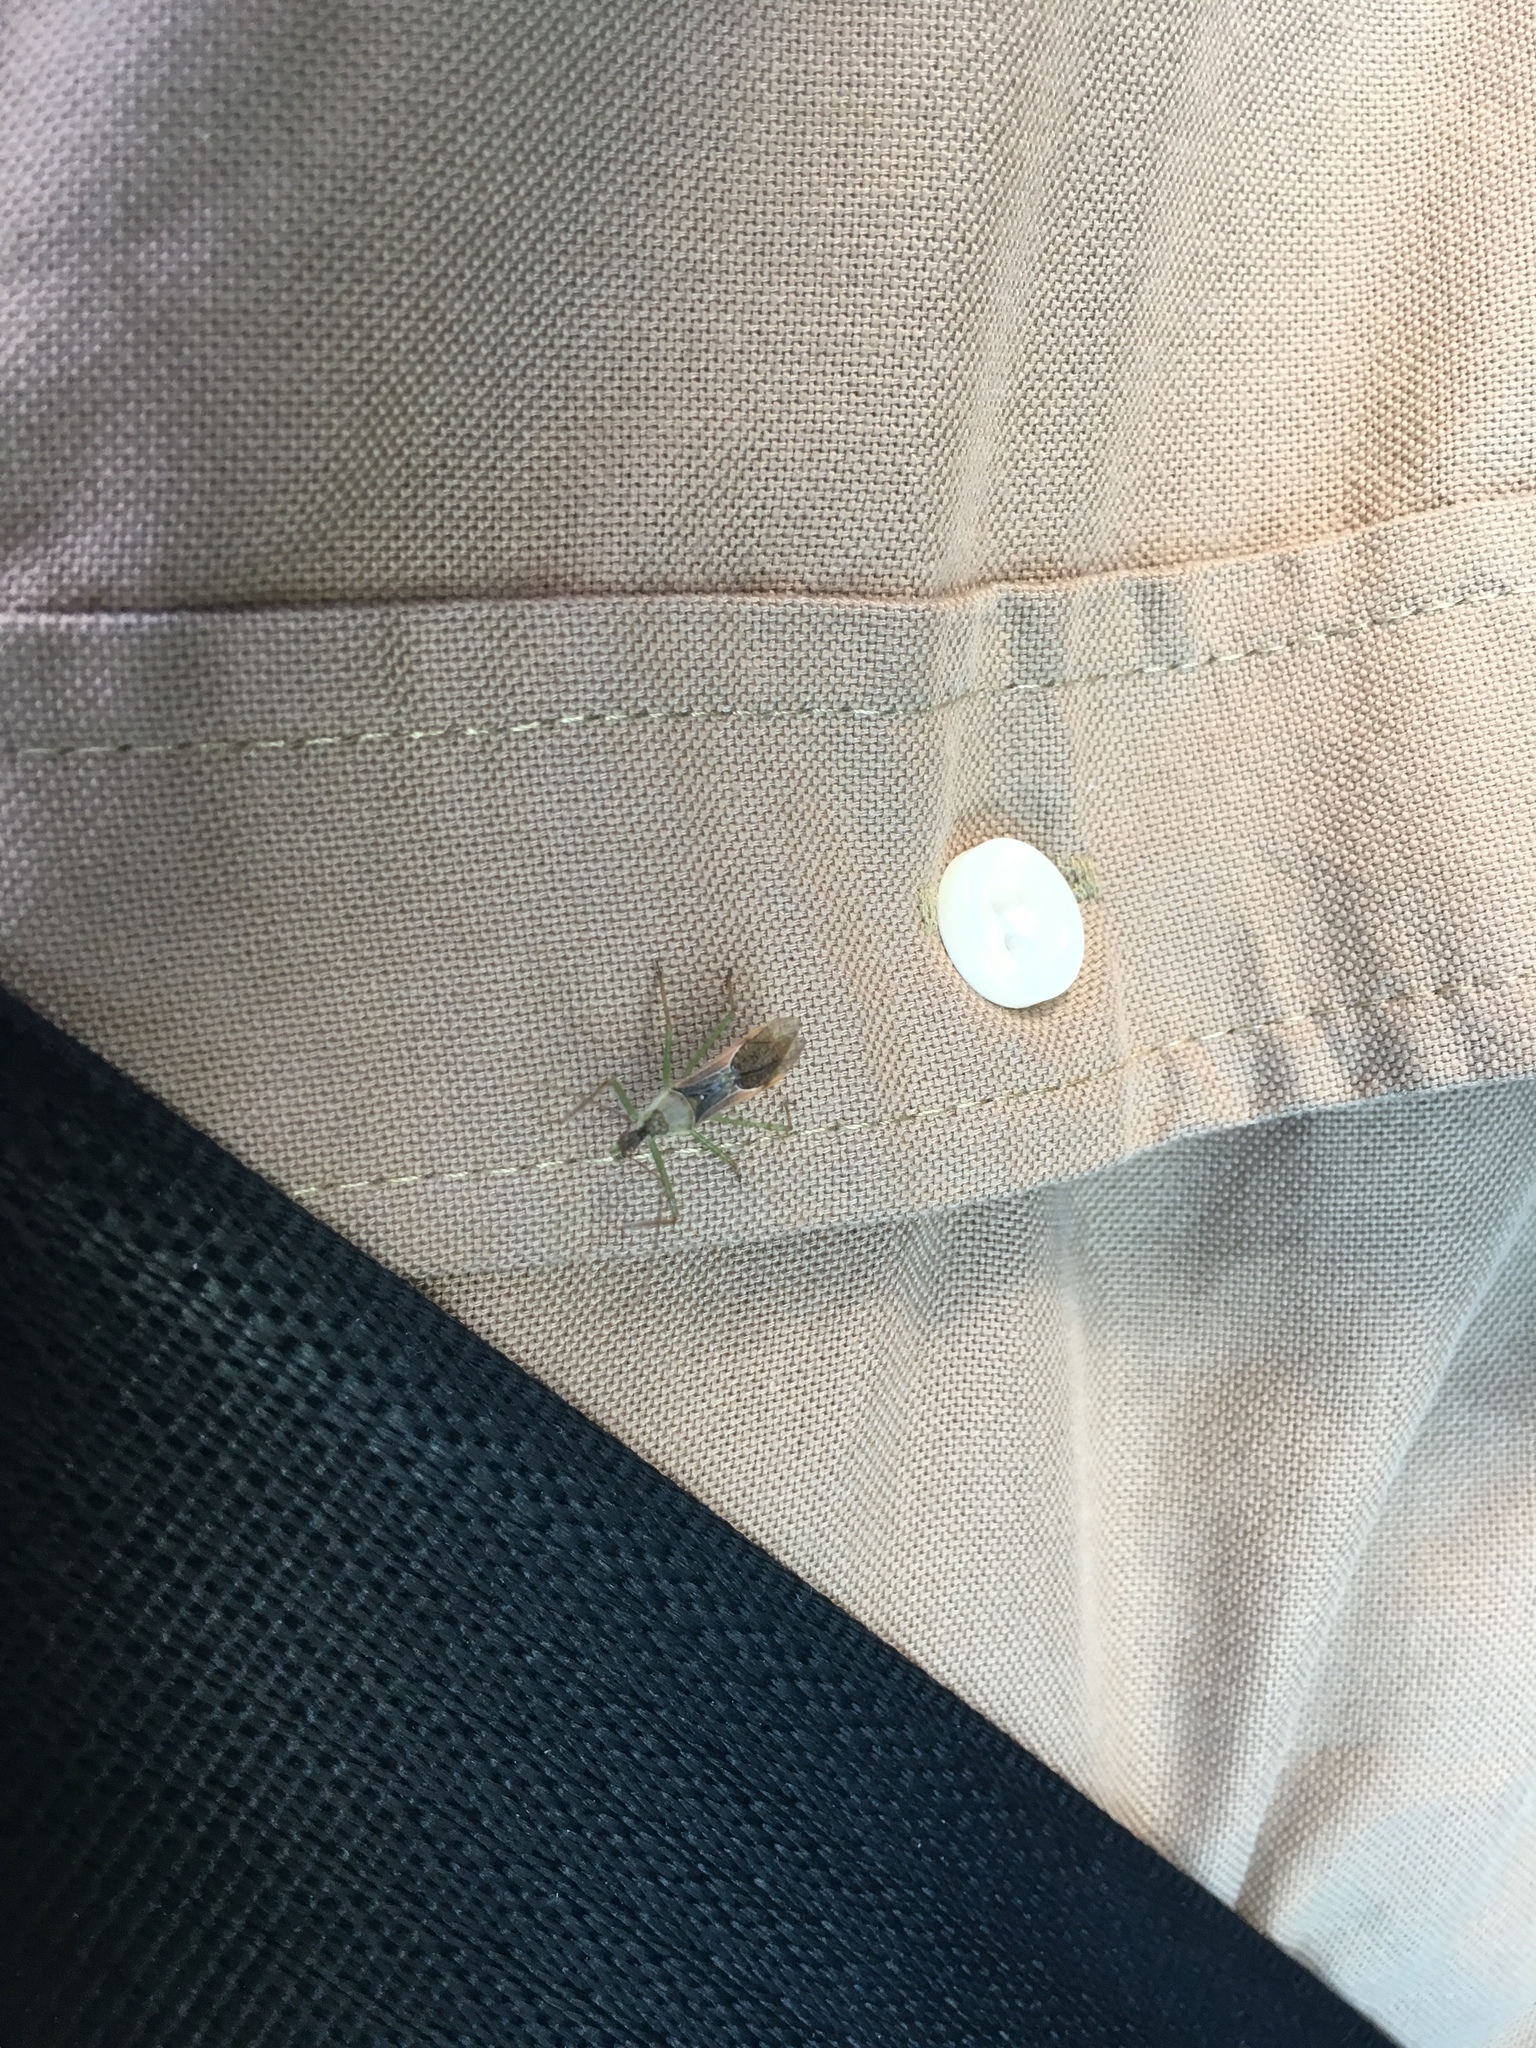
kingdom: Animalia
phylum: Arthropoda
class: Insecta
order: Hemiptera
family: Reduviidae
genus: Zelus
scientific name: Zelus renardii
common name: Assassin bug
